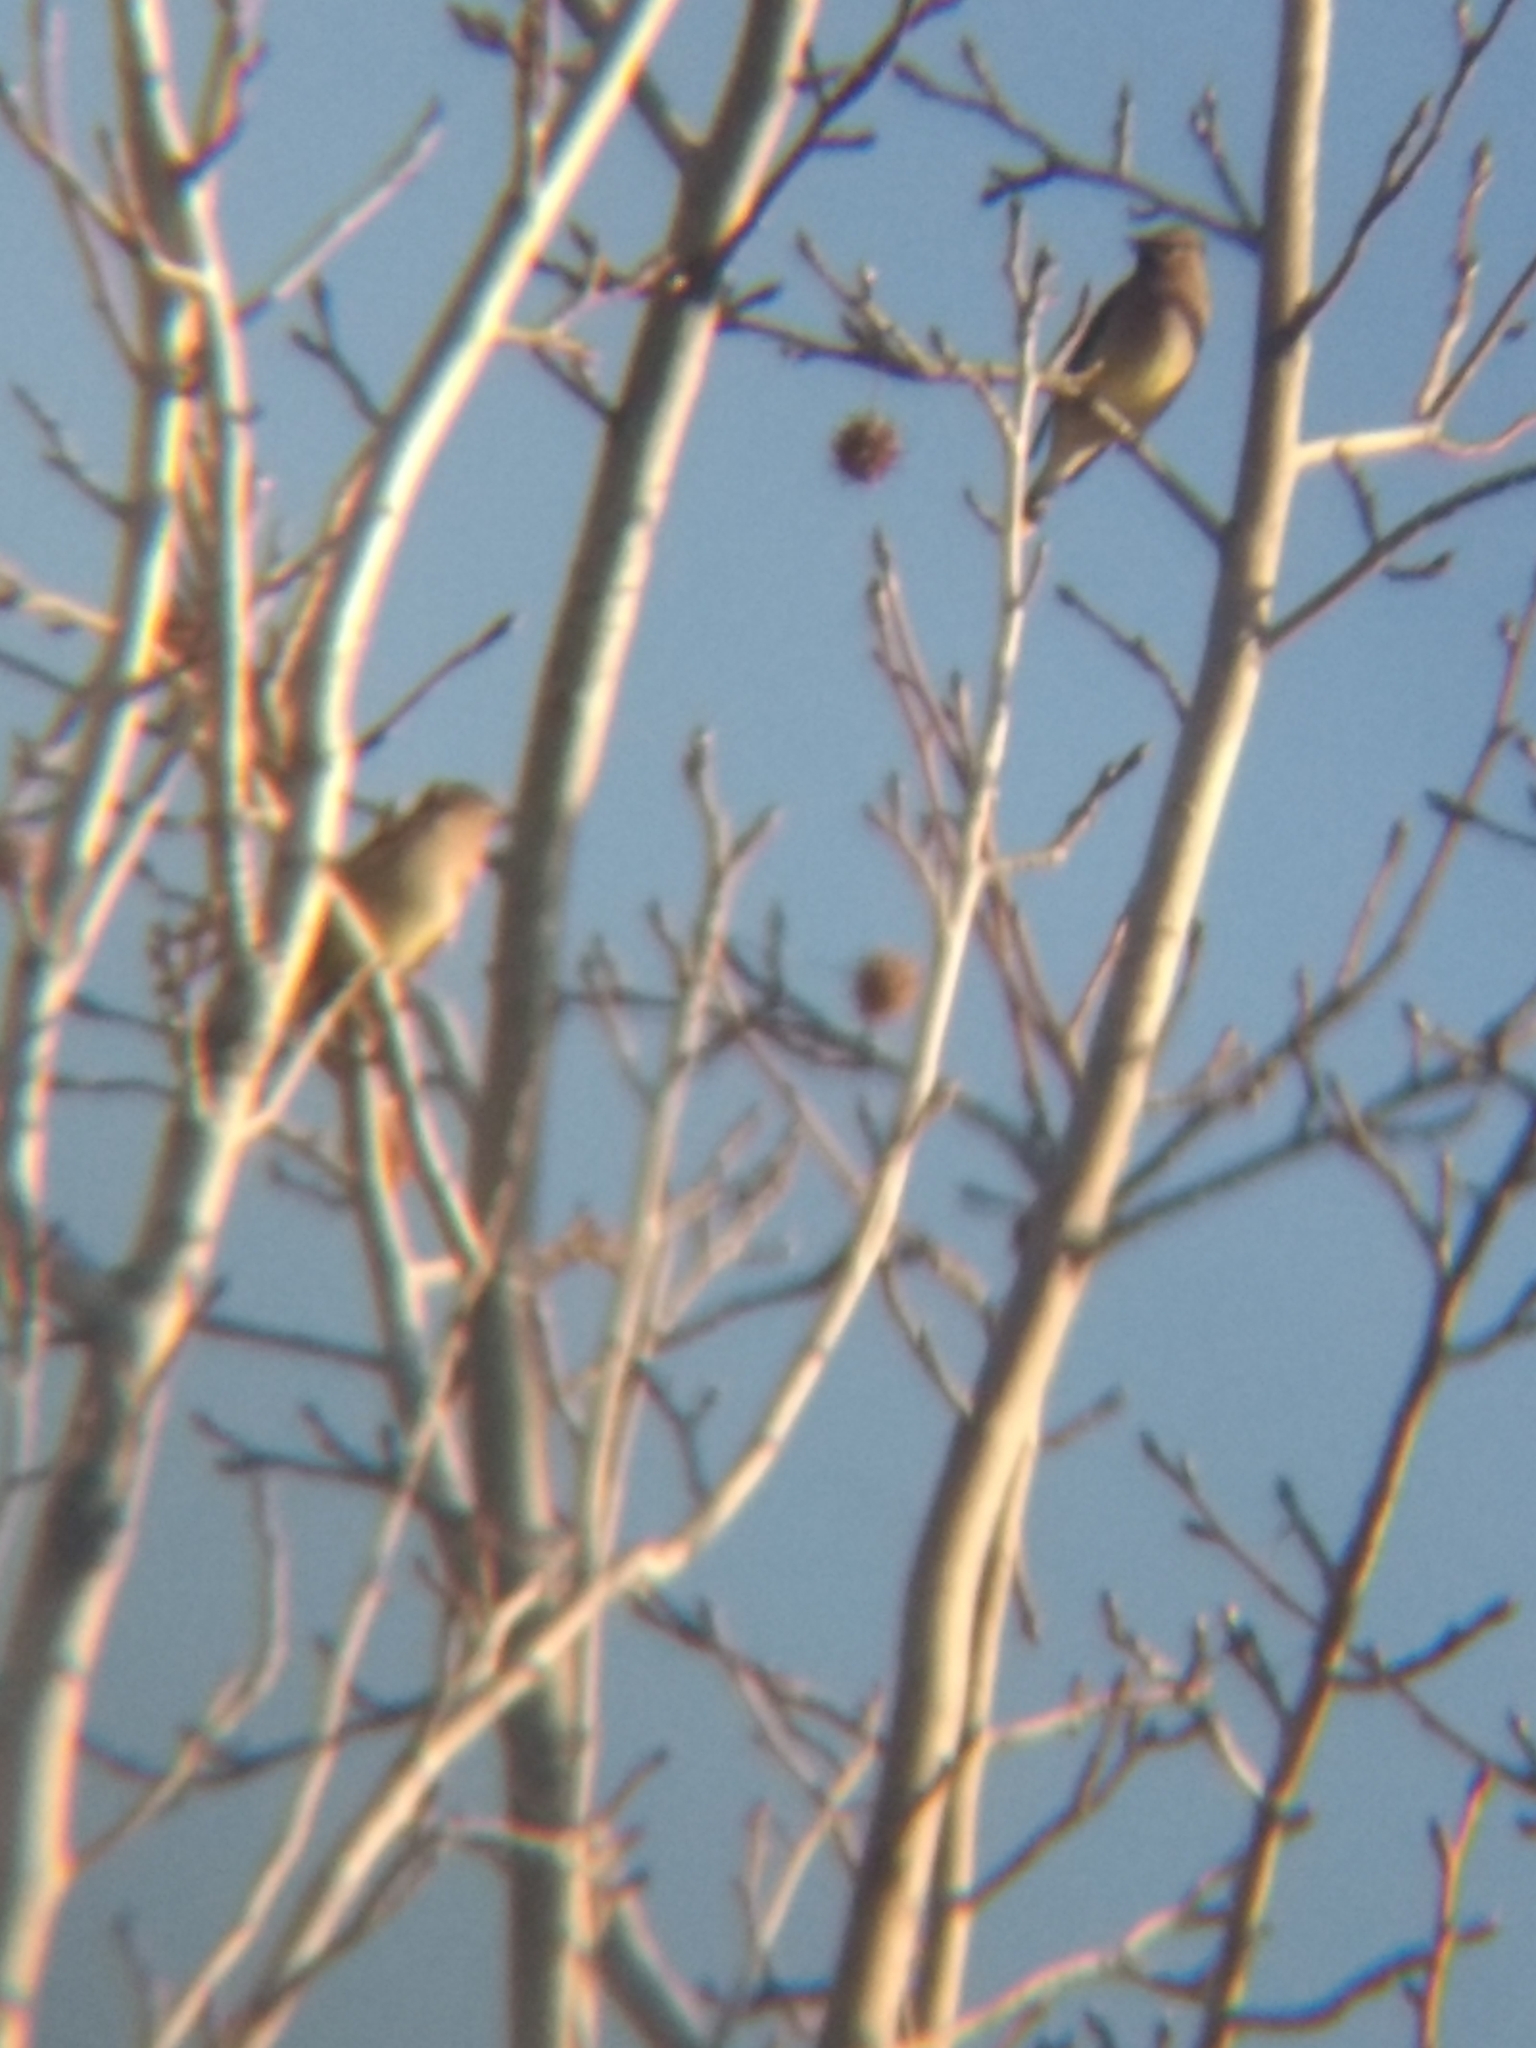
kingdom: Animalia
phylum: Chordata
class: Aves
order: Passeriformes
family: Bombycillidae
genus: Bombycilla
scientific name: Bombycilla cedrorum
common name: Cedar waxwing
